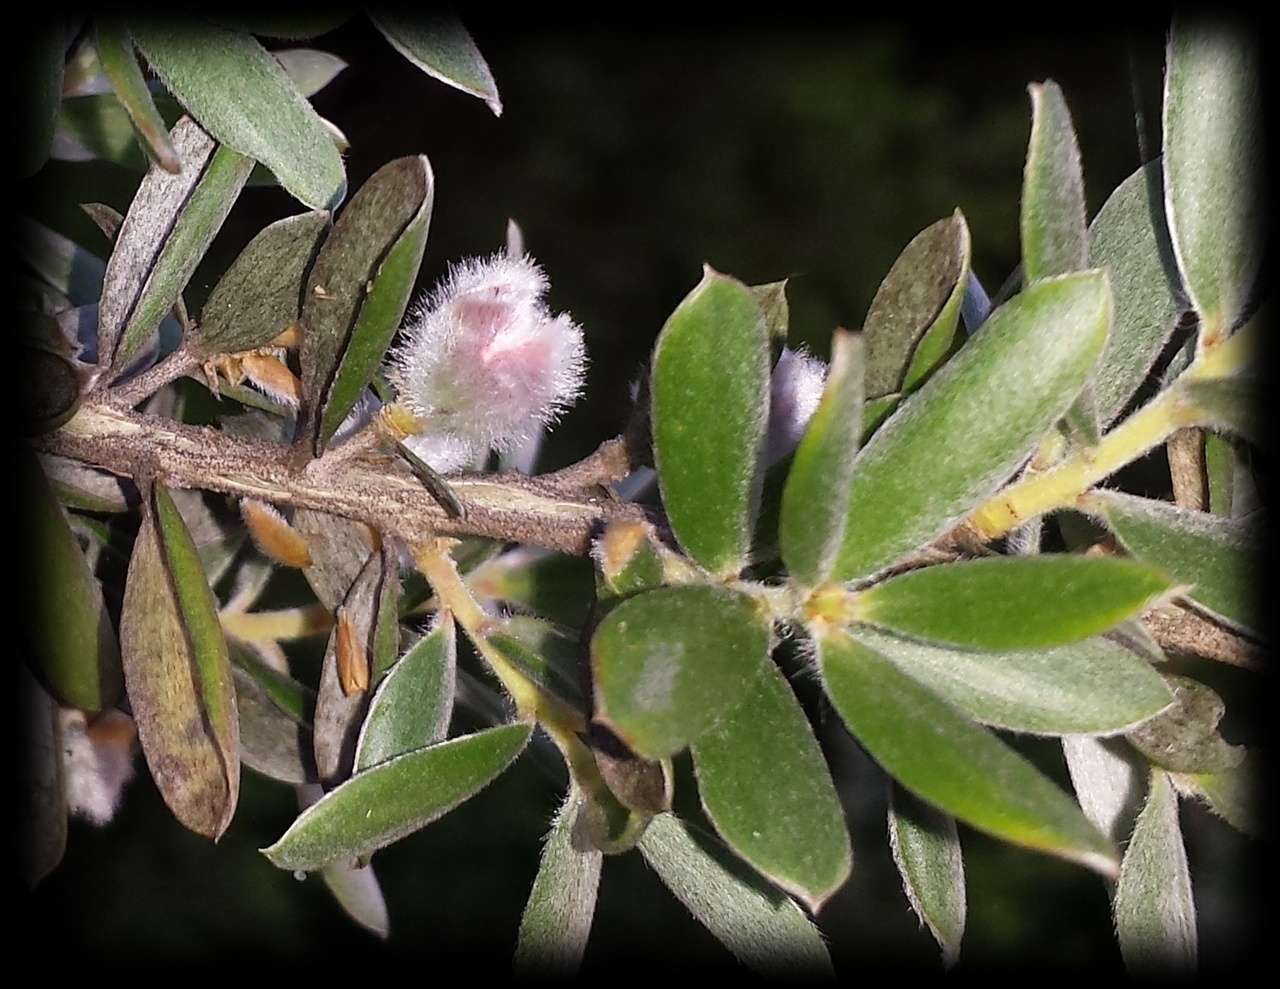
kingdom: Plantae
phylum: Tracheophyta
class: Magnoliopsida
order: Myrtales
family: Myrtaceae
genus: Leptospermum
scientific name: Leptospermum grandifolium
